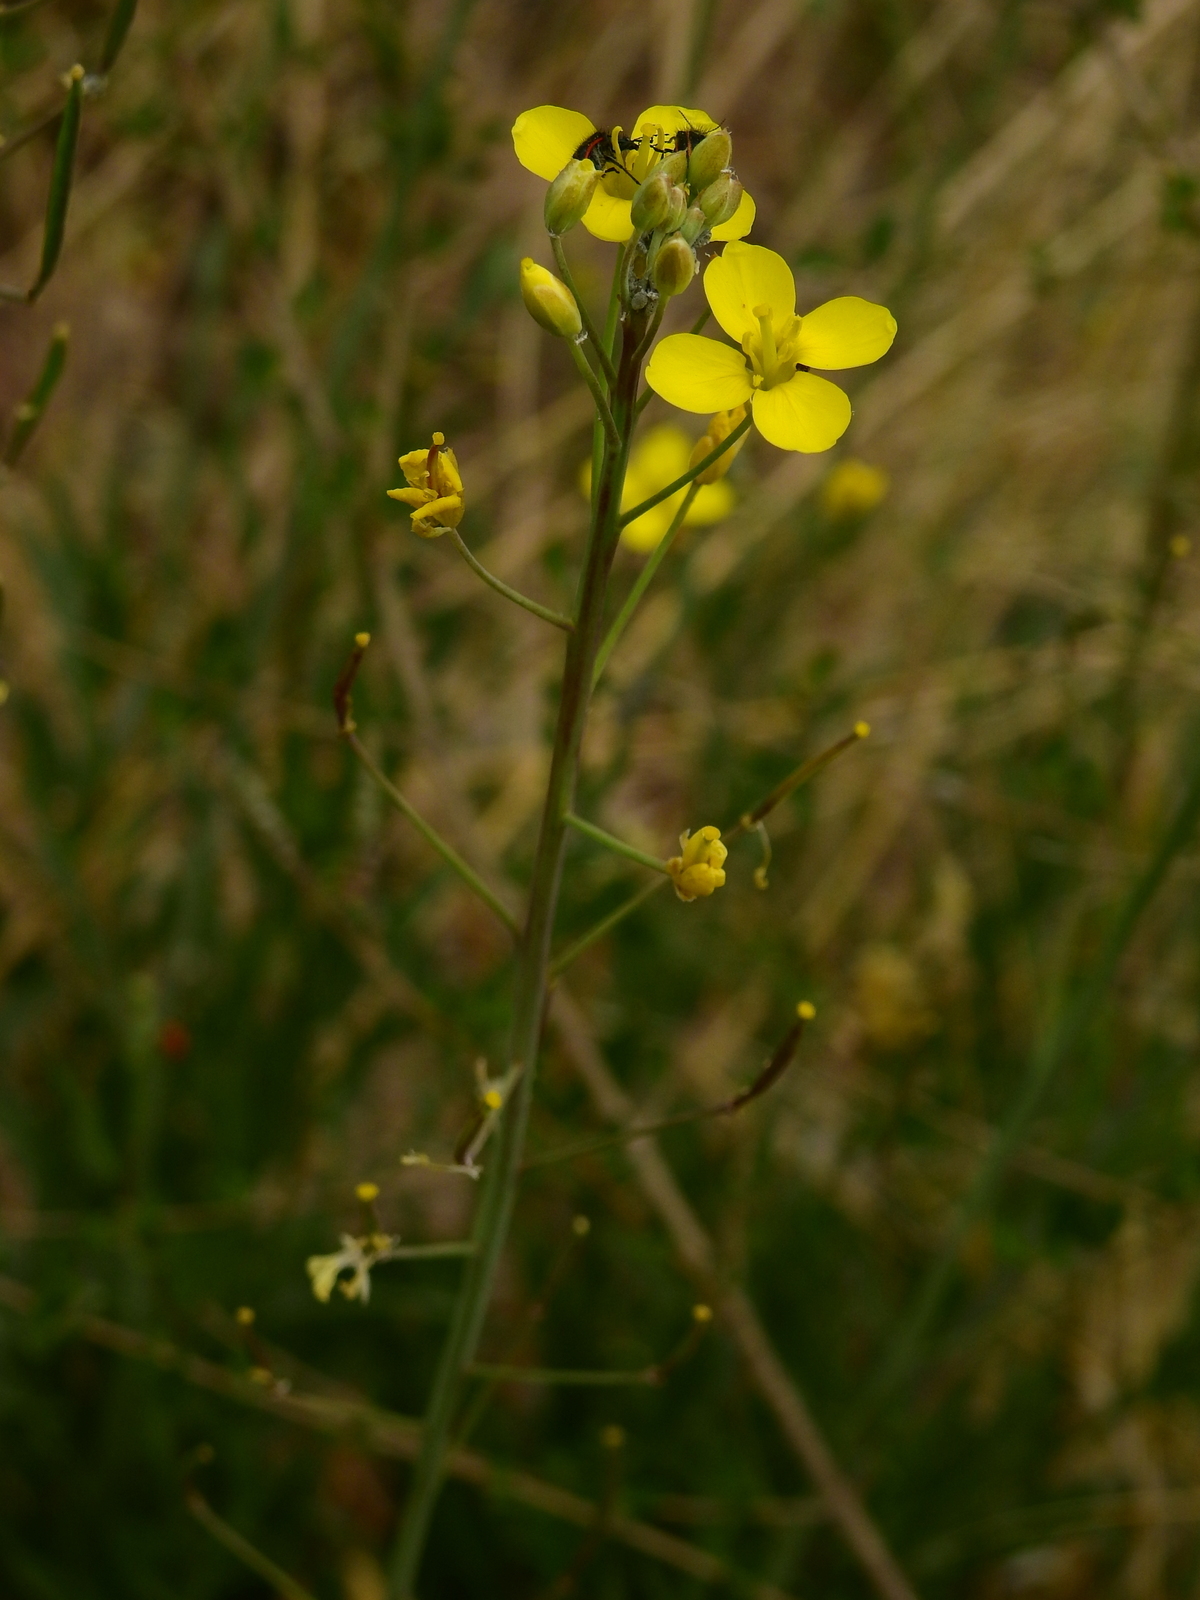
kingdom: Plantae
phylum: Tracheophyta
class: Magnoliopsida
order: Brassicales
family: Brassicaceae
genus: Diplotaxis
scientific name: Diplotaxis tenuifolia
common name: Perennial wall-rocket
